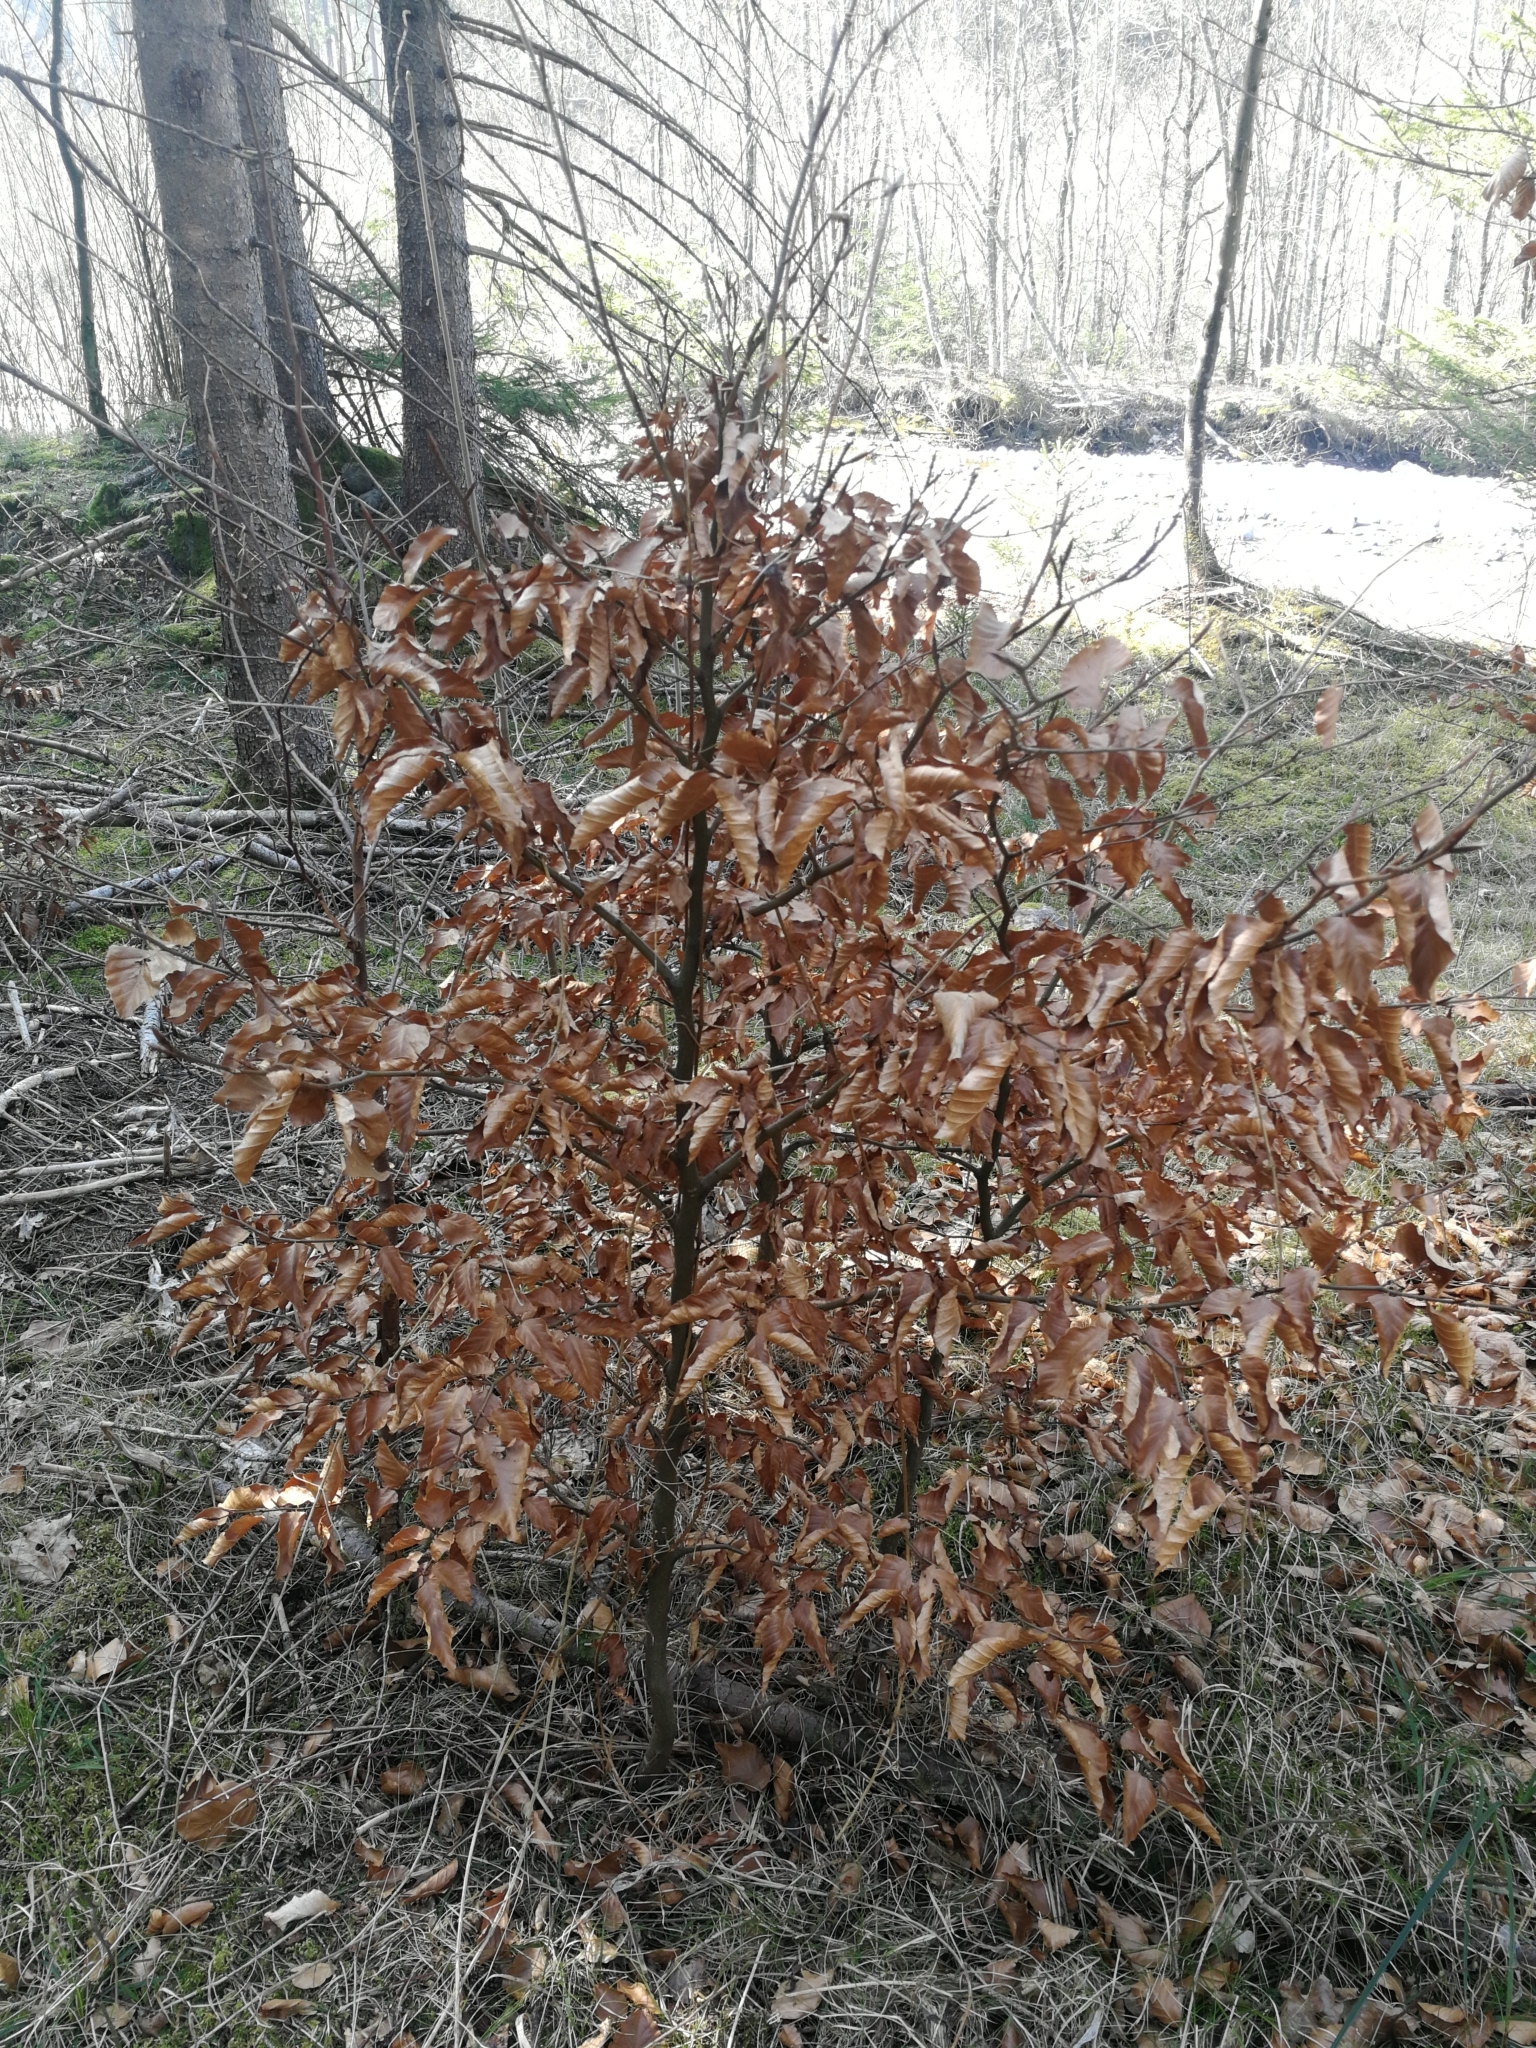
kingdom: Plantae
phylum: Tracheophyta
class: Magnoliopsida
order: Fagales
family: Fagaceae
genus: Fagus
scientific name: Fagus sylvatica
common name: Beech
